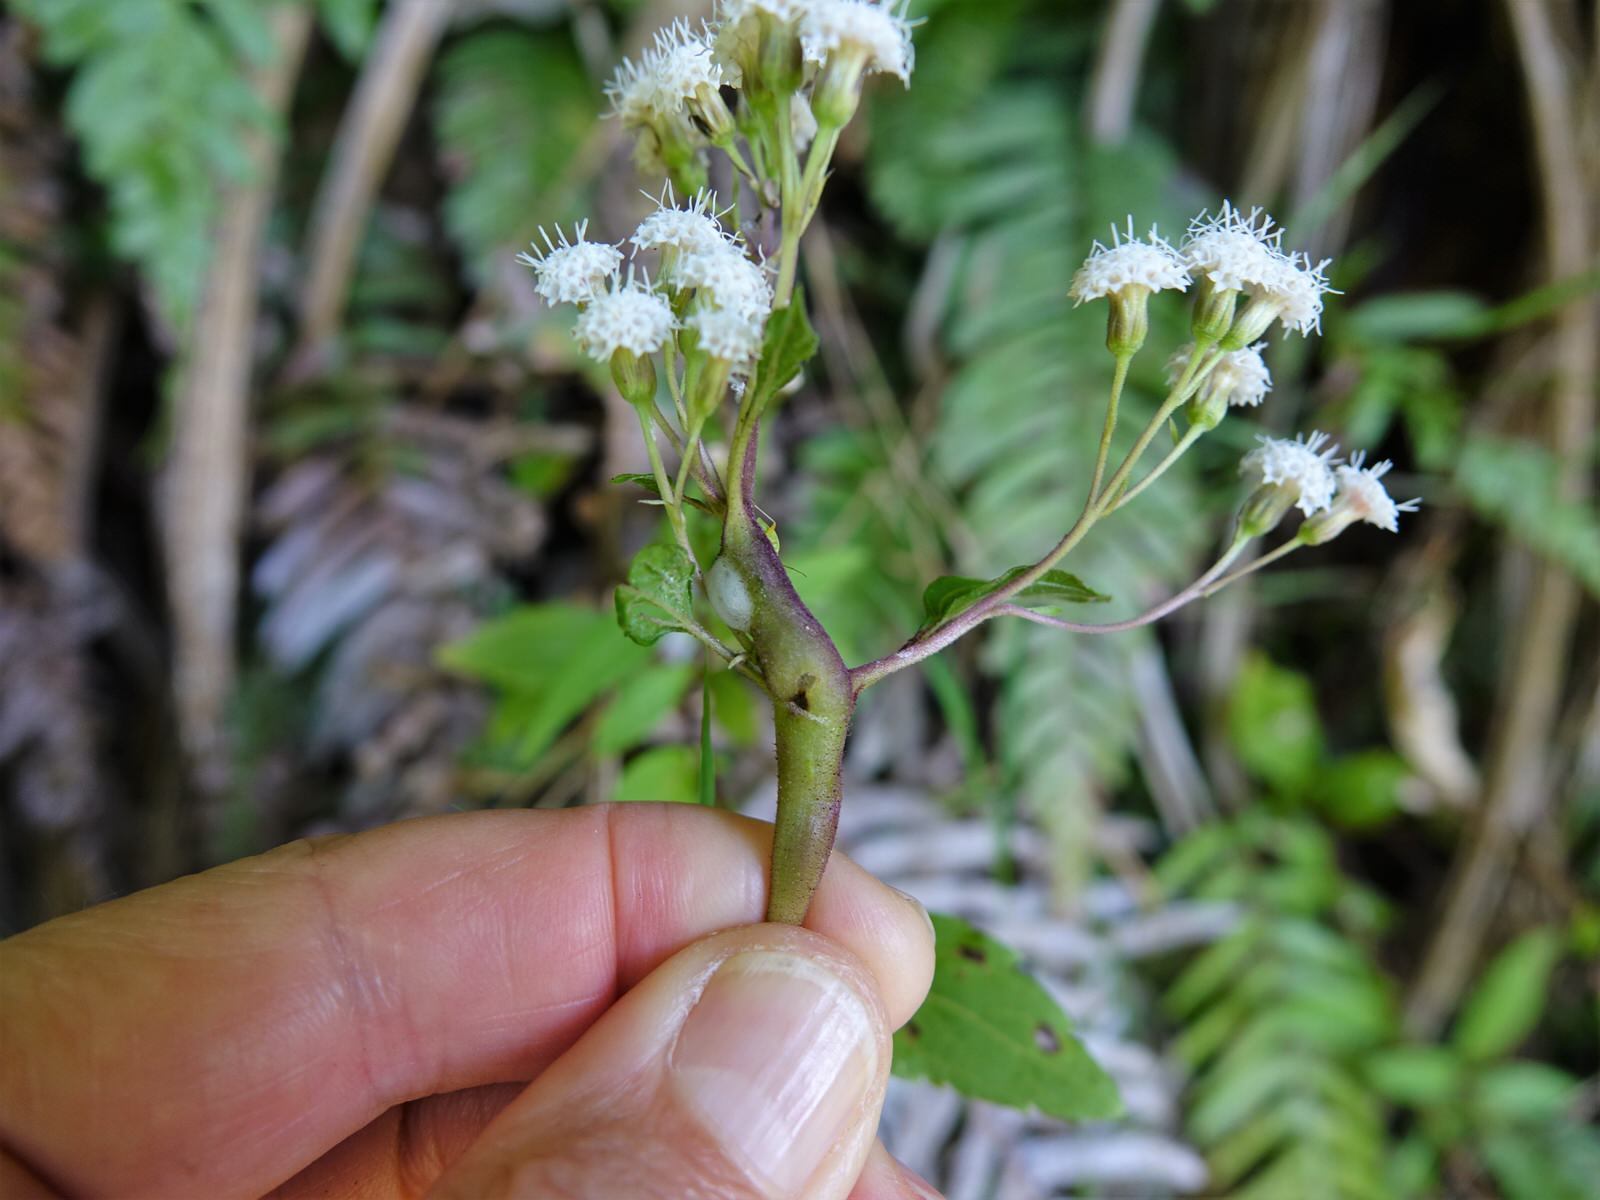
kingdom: Plantae
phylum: Tracheophyta
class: Magnoliopsida
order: Asterales
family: Asteraceae
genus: Ageratina
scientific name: Ageratina riparia
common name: Creeping croftonweed
